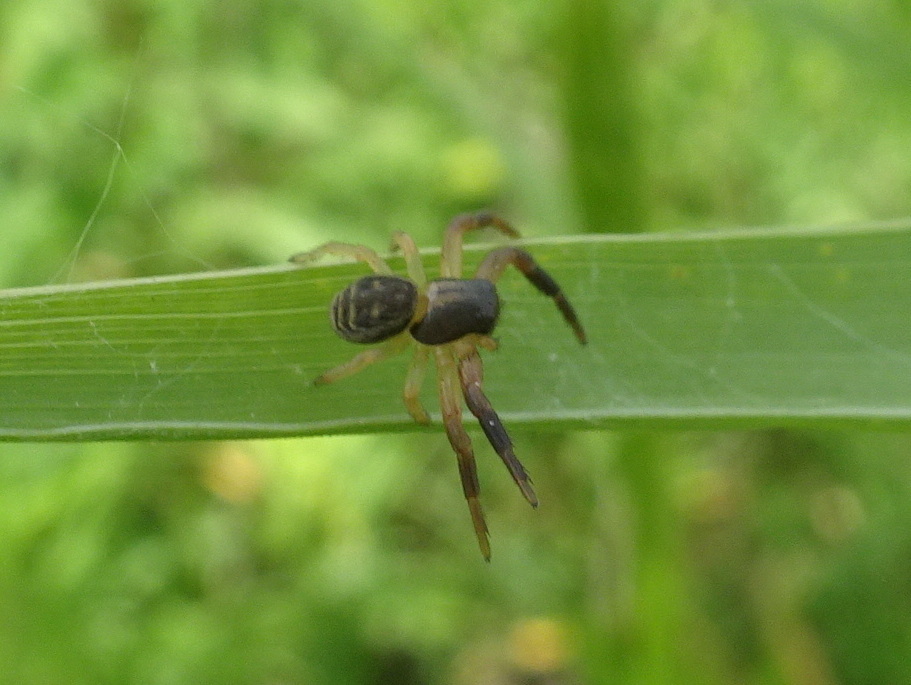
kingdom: Animalia
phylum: Arthropoda
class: Arachnida
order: Araneae
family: Thomisidae
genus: Xysticus
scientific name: Xysticus texanus
